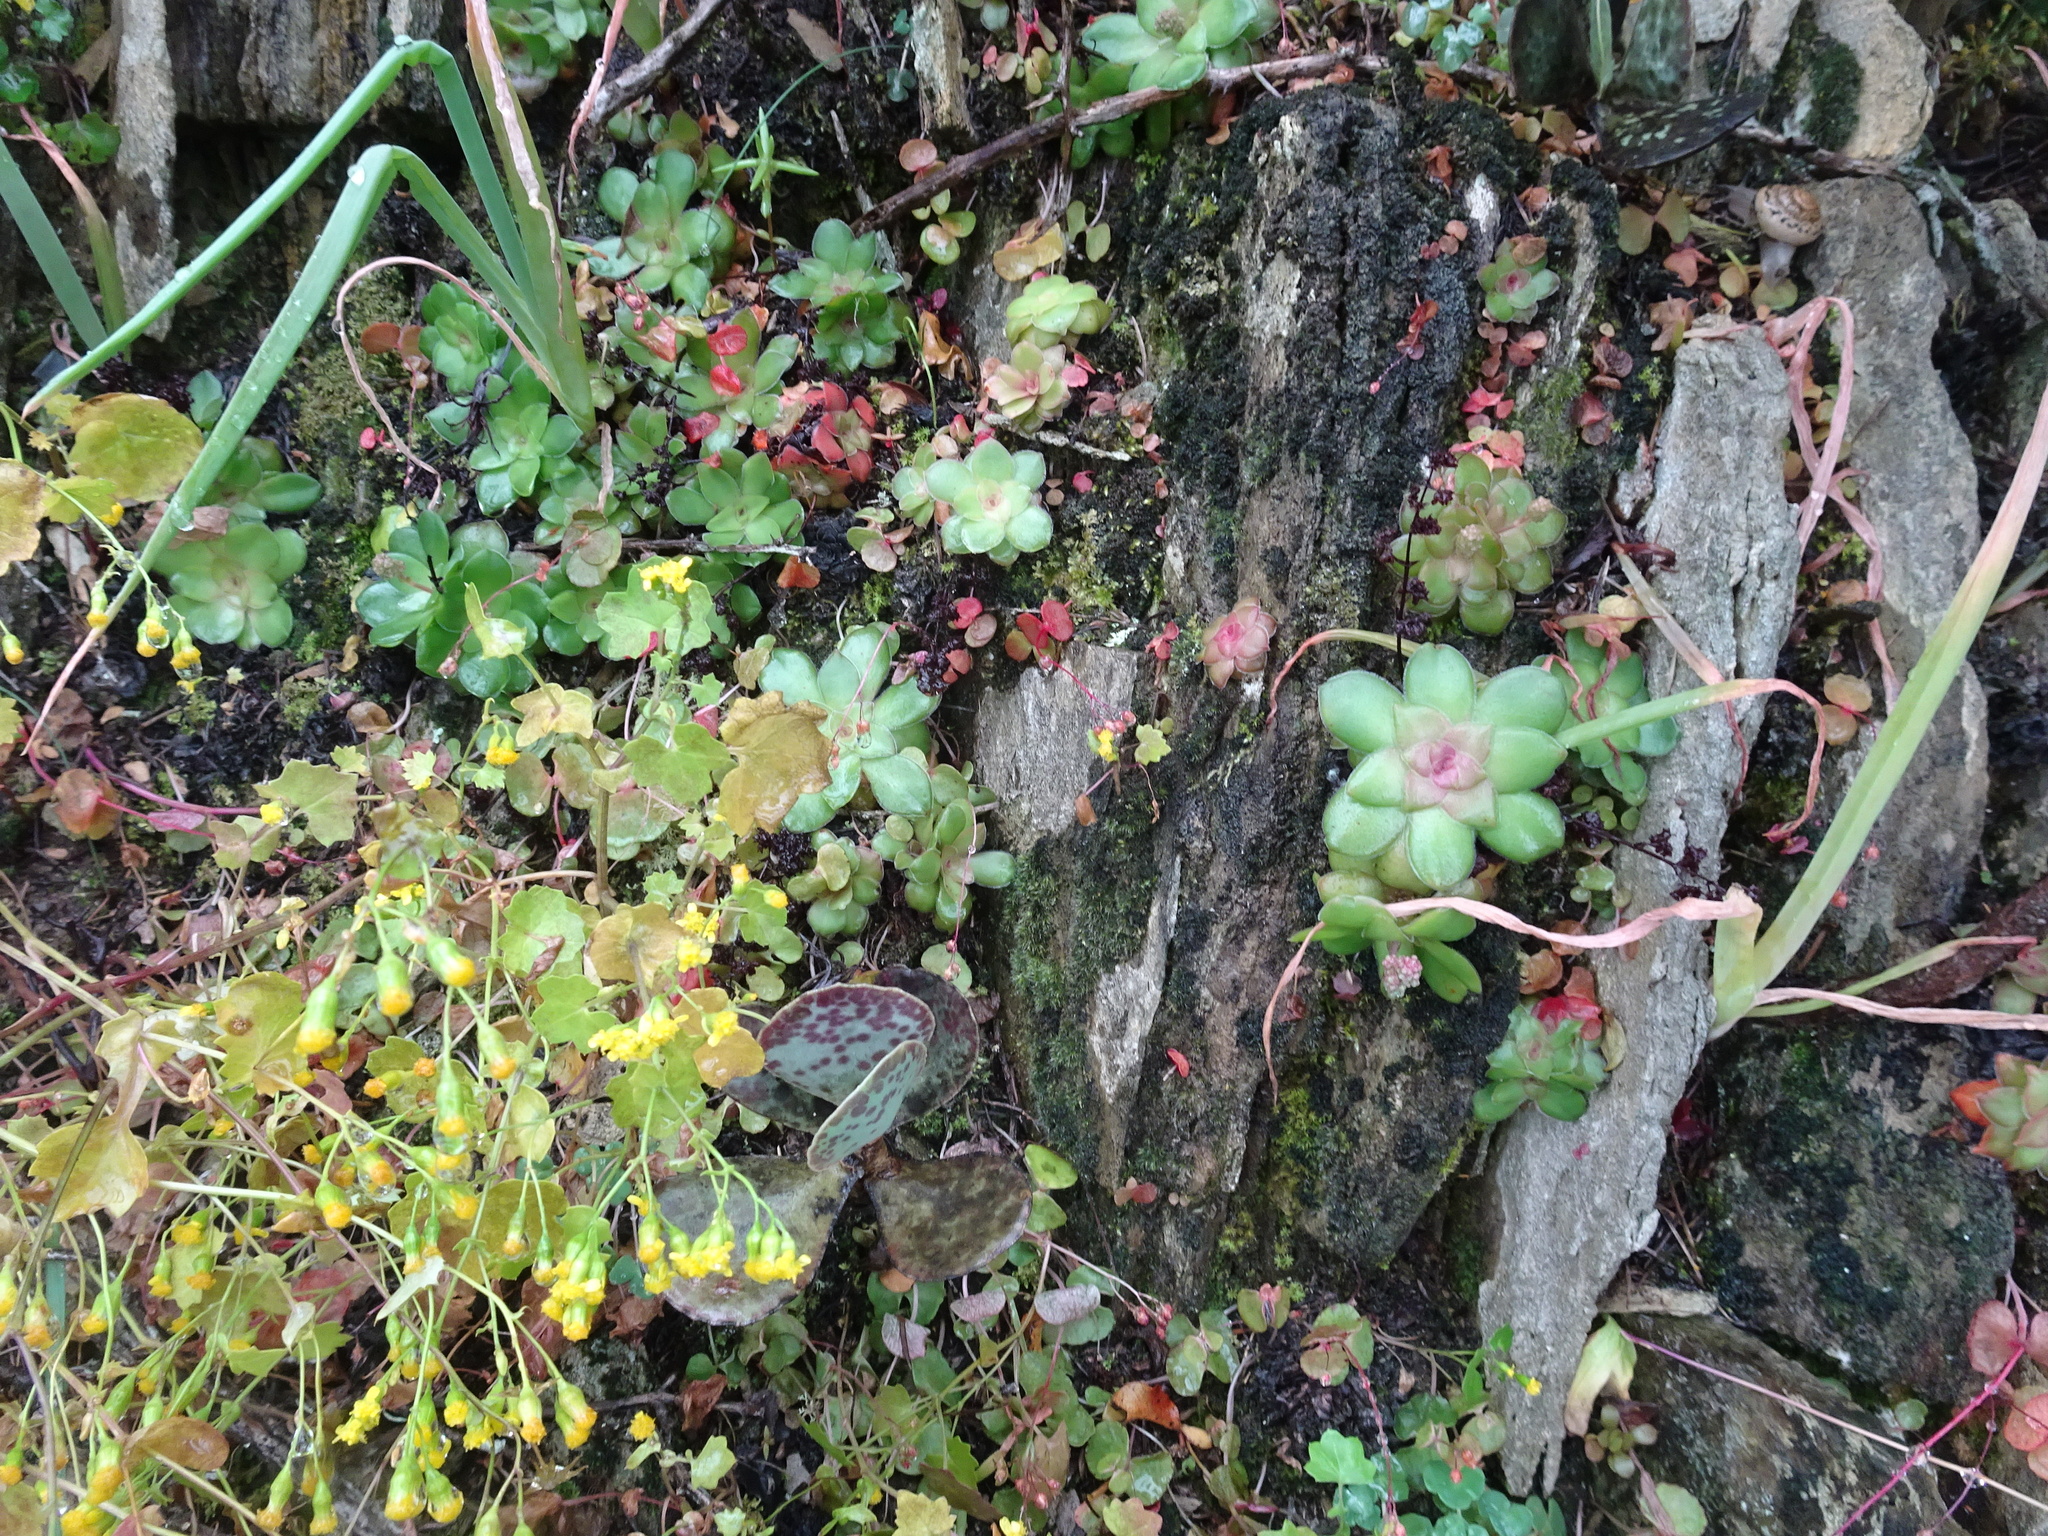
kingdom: Plantae
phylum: Tracheophyta
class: Magnoliopsida
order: Saxifragales
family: Crassulaceae
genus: Crassula
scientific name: Crassula orbicularis
